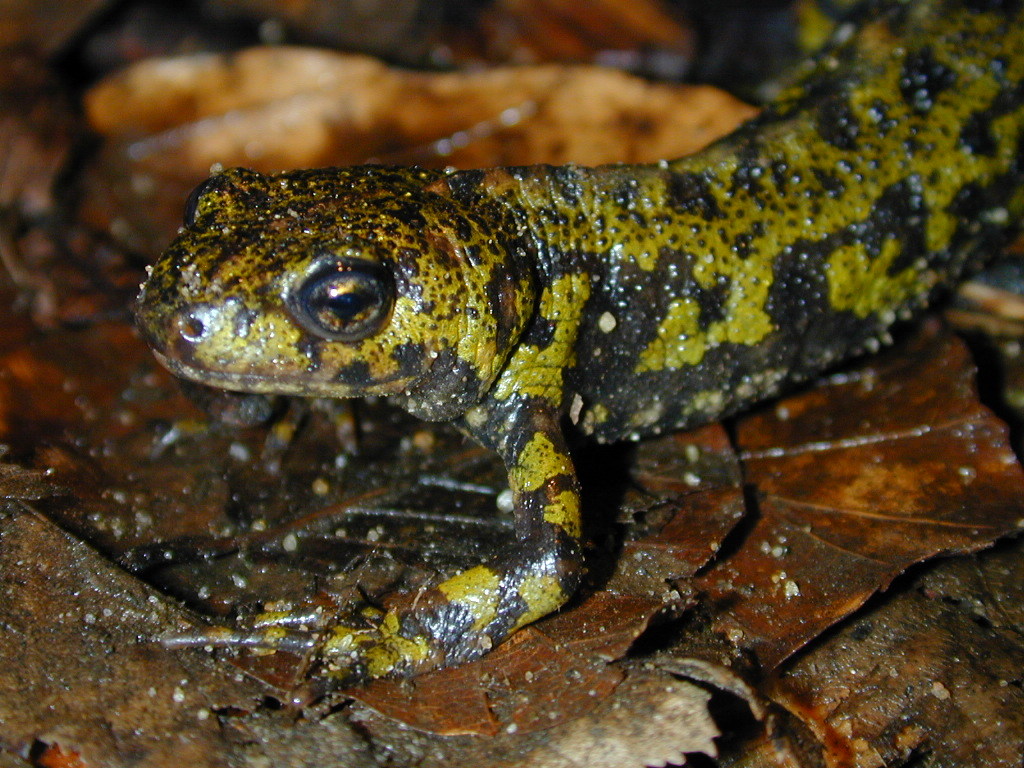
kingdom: Animalia
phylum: Chordata
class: Amphibia
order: Caudata
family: Salamandridae
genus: Triturus
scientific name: Triturus marmoratus
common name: Marbled newt
